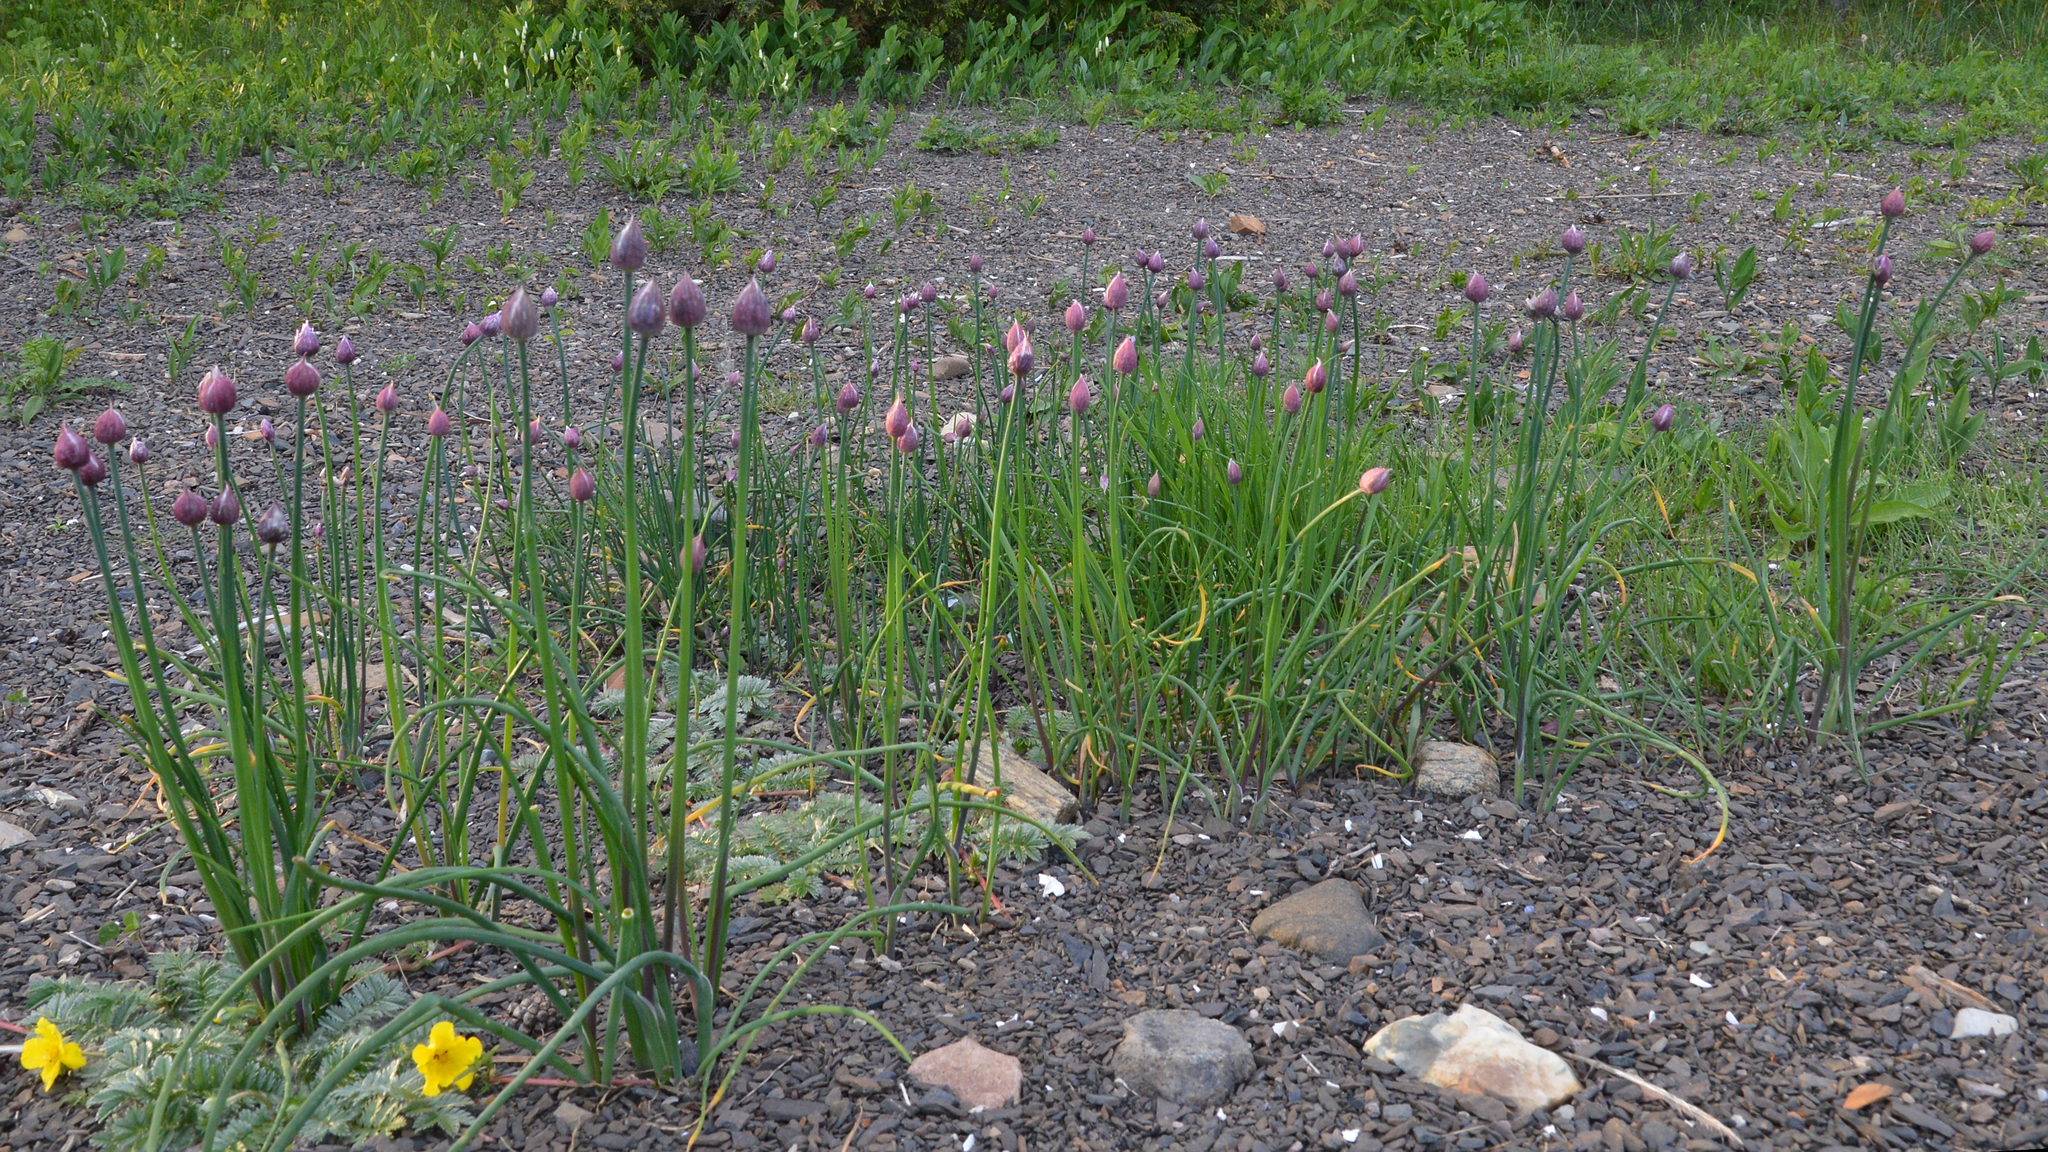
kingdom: Plantae
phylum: Tracheophyta
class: Liliopsida
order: Asparagales
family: Amaryllidaceae
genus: Allium
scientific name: Allium schoenoprasum
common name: Chives
